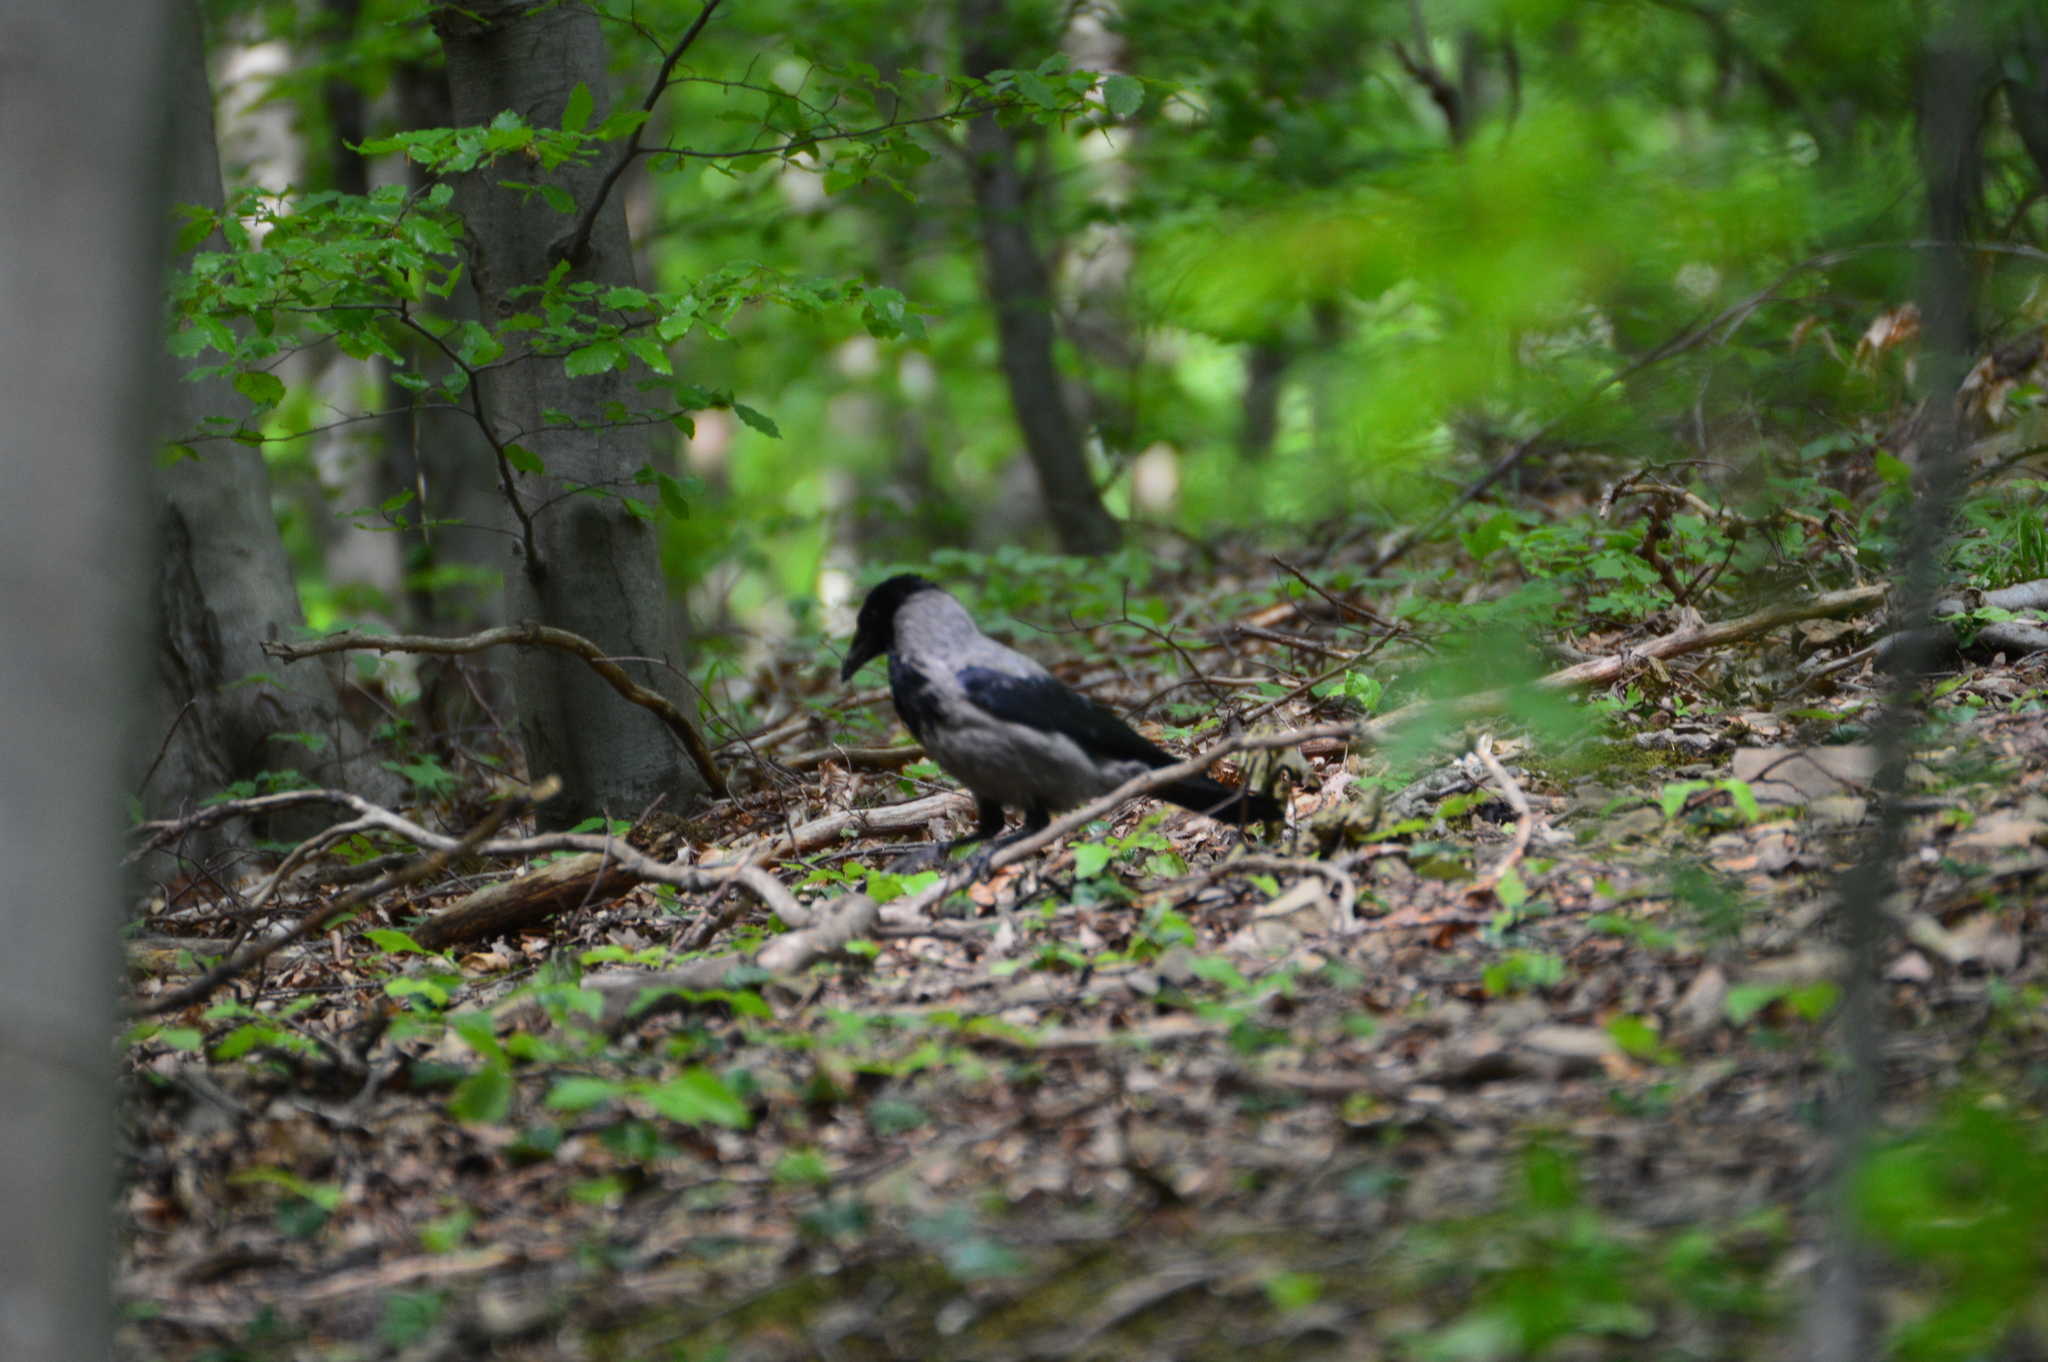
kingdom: Animalia
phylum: Chordata
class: Aves
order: Passeriformes
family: Corvidae
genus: Corvus
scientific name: Corvus cornix
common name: Hooded crow
